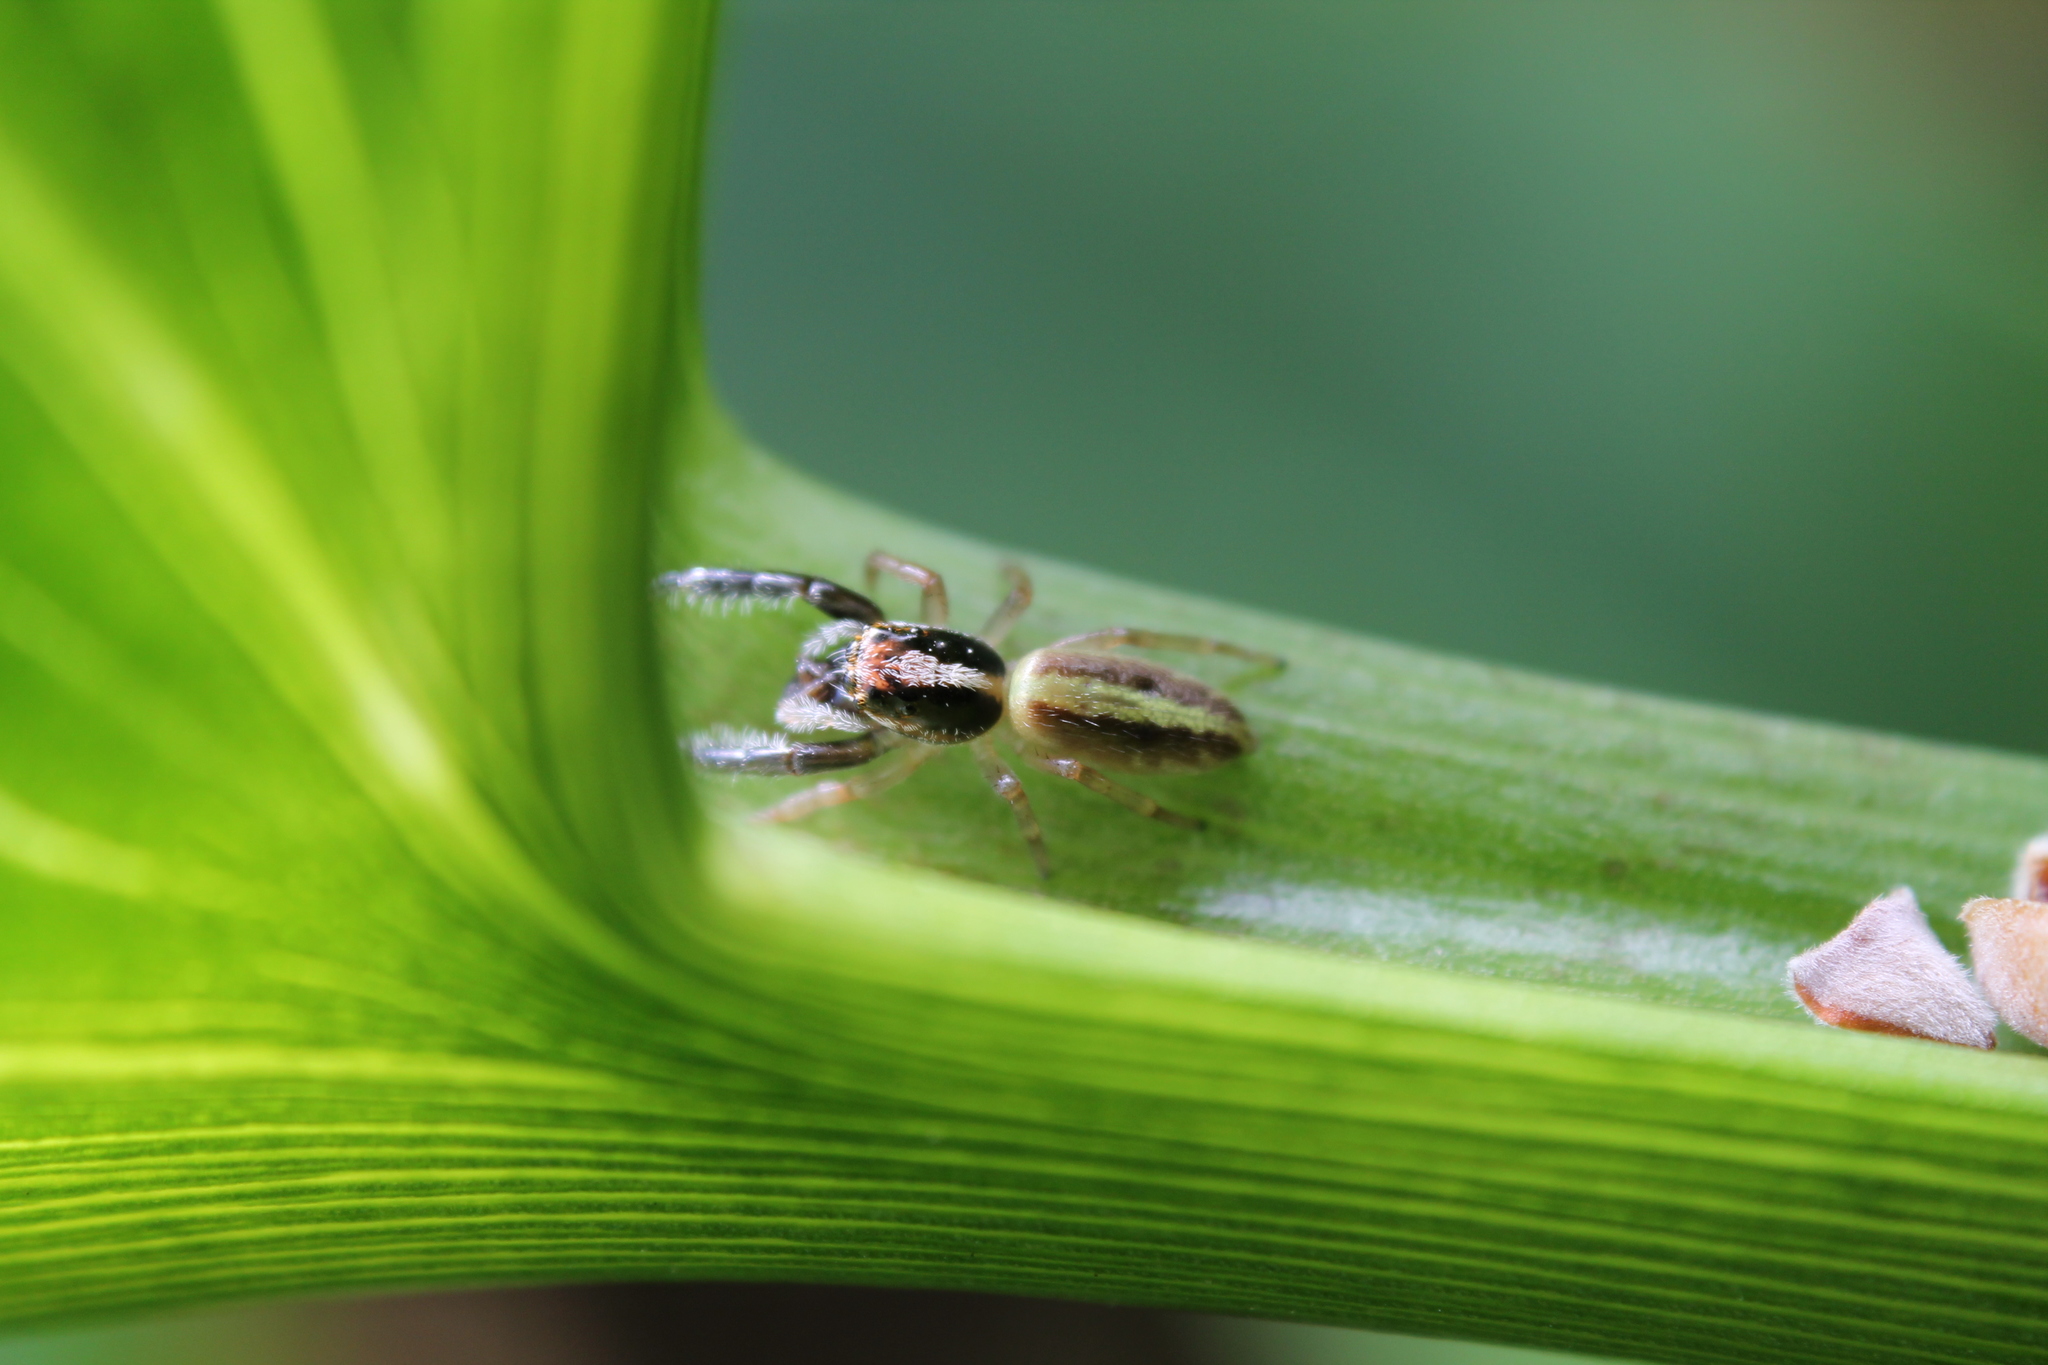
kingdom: Animalia
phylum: Arthropoda
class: Arachnida
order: Araneae
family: Salticidae
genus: Trite
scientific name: Trite planiceps
